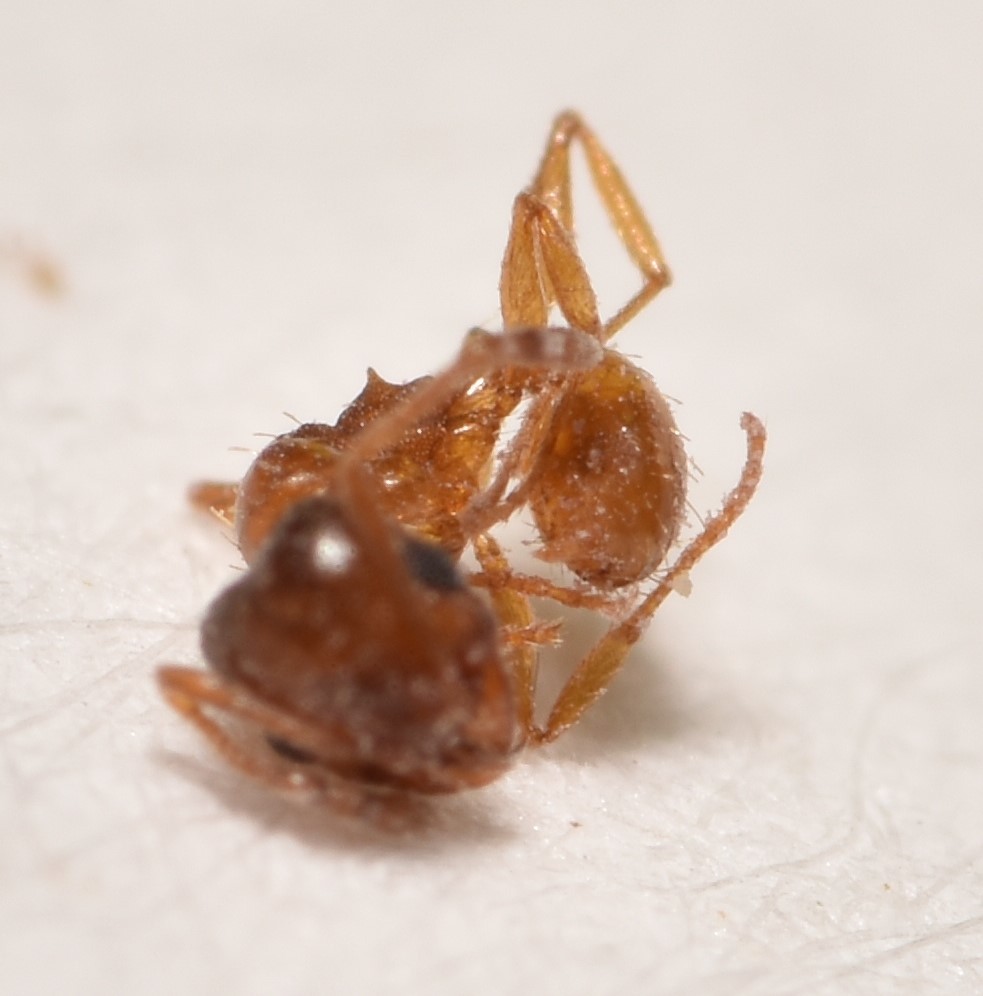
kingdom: Animalia
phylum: Arthropoda
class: Insecta
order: Hymenoptera
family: Formicidae
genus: Pheidole
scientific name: Pheidole soritis
